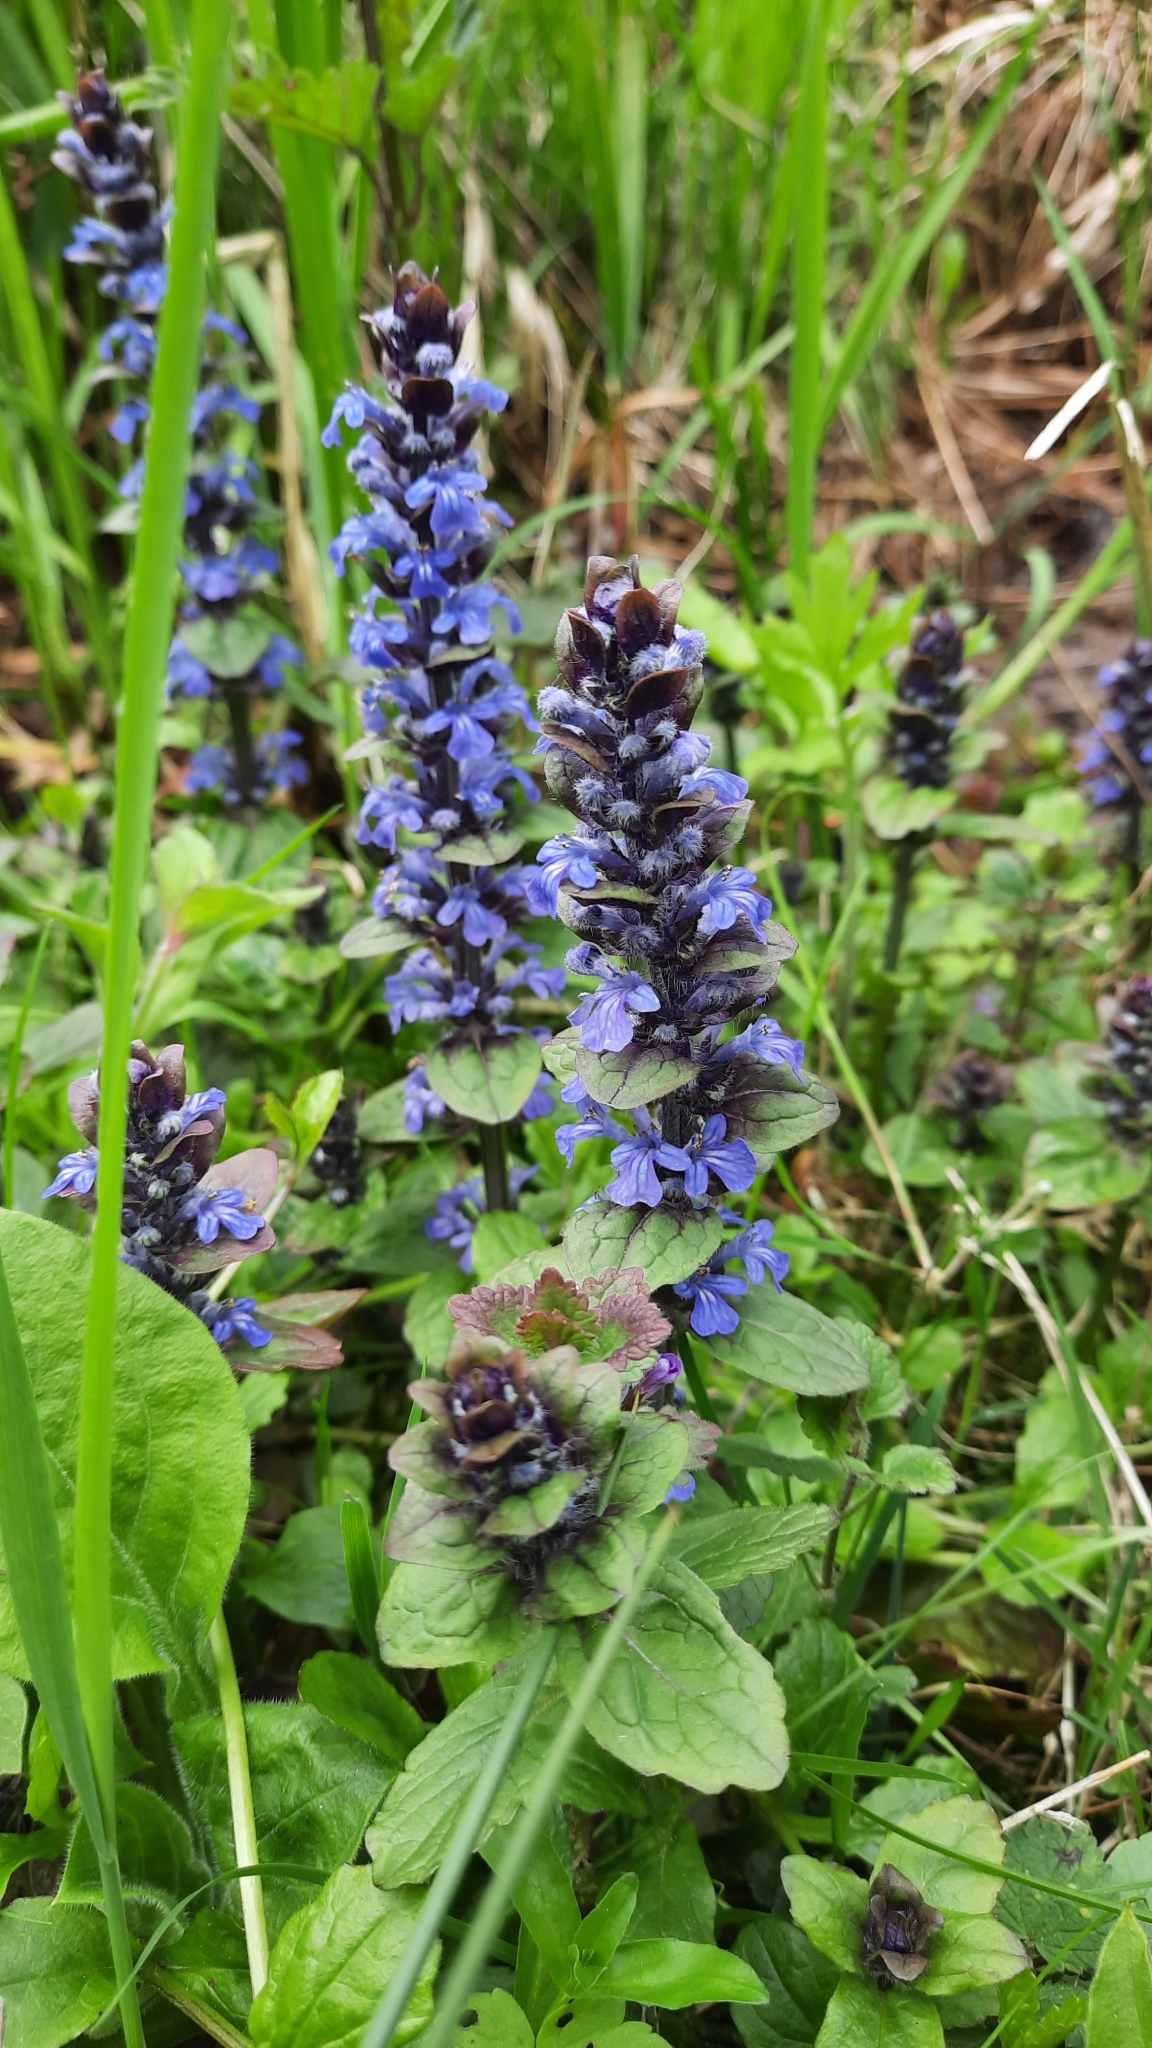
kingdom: Plantae
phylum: Tracheophyta
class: Magnoliopsida
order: Lamiales
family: Lamiaceae
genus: Ajuga
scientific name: Ajuga reptans
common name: Bugle
